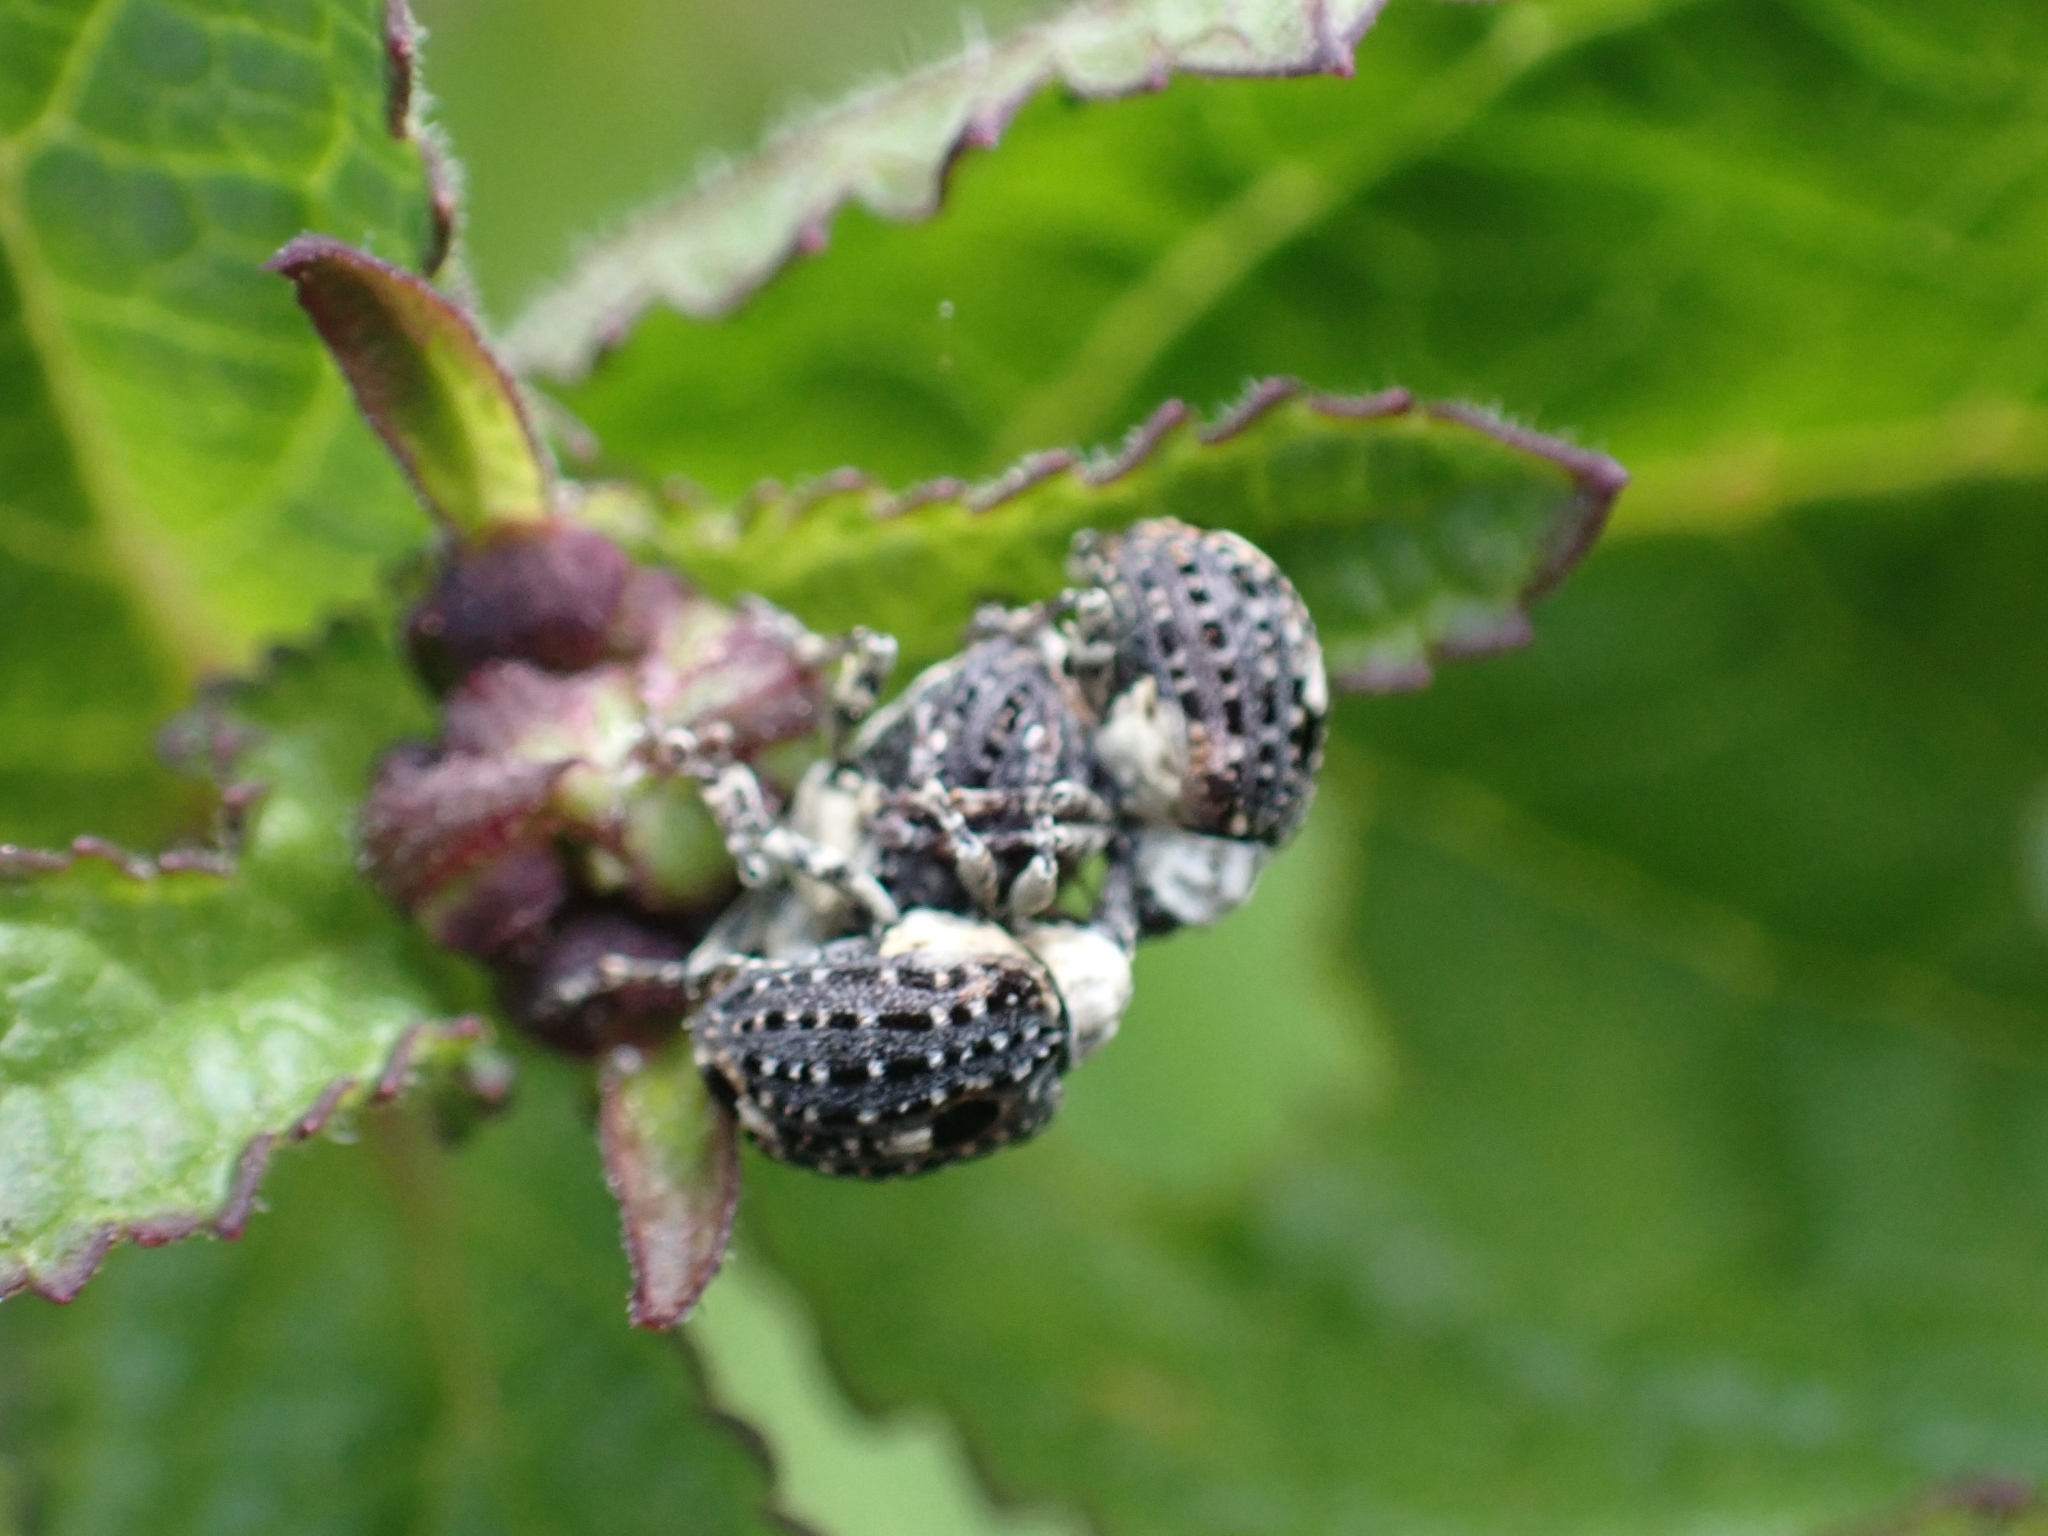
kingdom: Animalia
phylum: Arthropoda
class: Insecta
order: Coleoptera
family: Curculionidae
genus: Cionus
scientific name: Cionus scrophulariae
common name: Common figwort weevil
